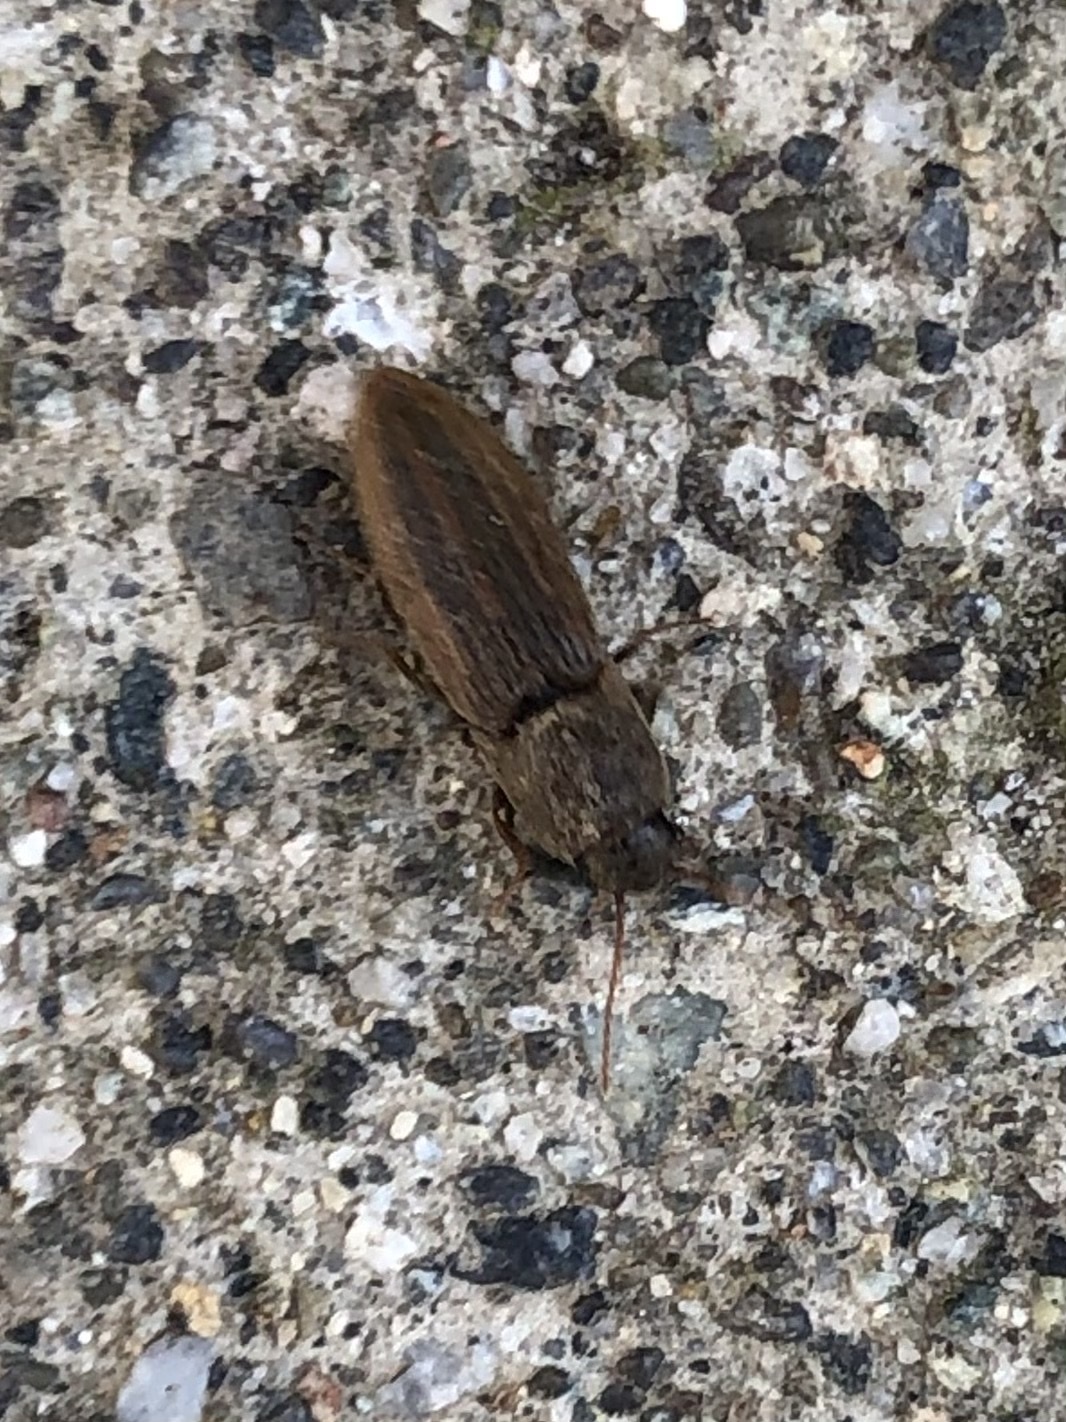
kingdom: Animalia
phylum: Arthropoda
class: Insecta
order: Coleoptera
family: Elateridae
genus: Agriotes
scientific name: Agriotes lineatus
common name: Lined click beetle
